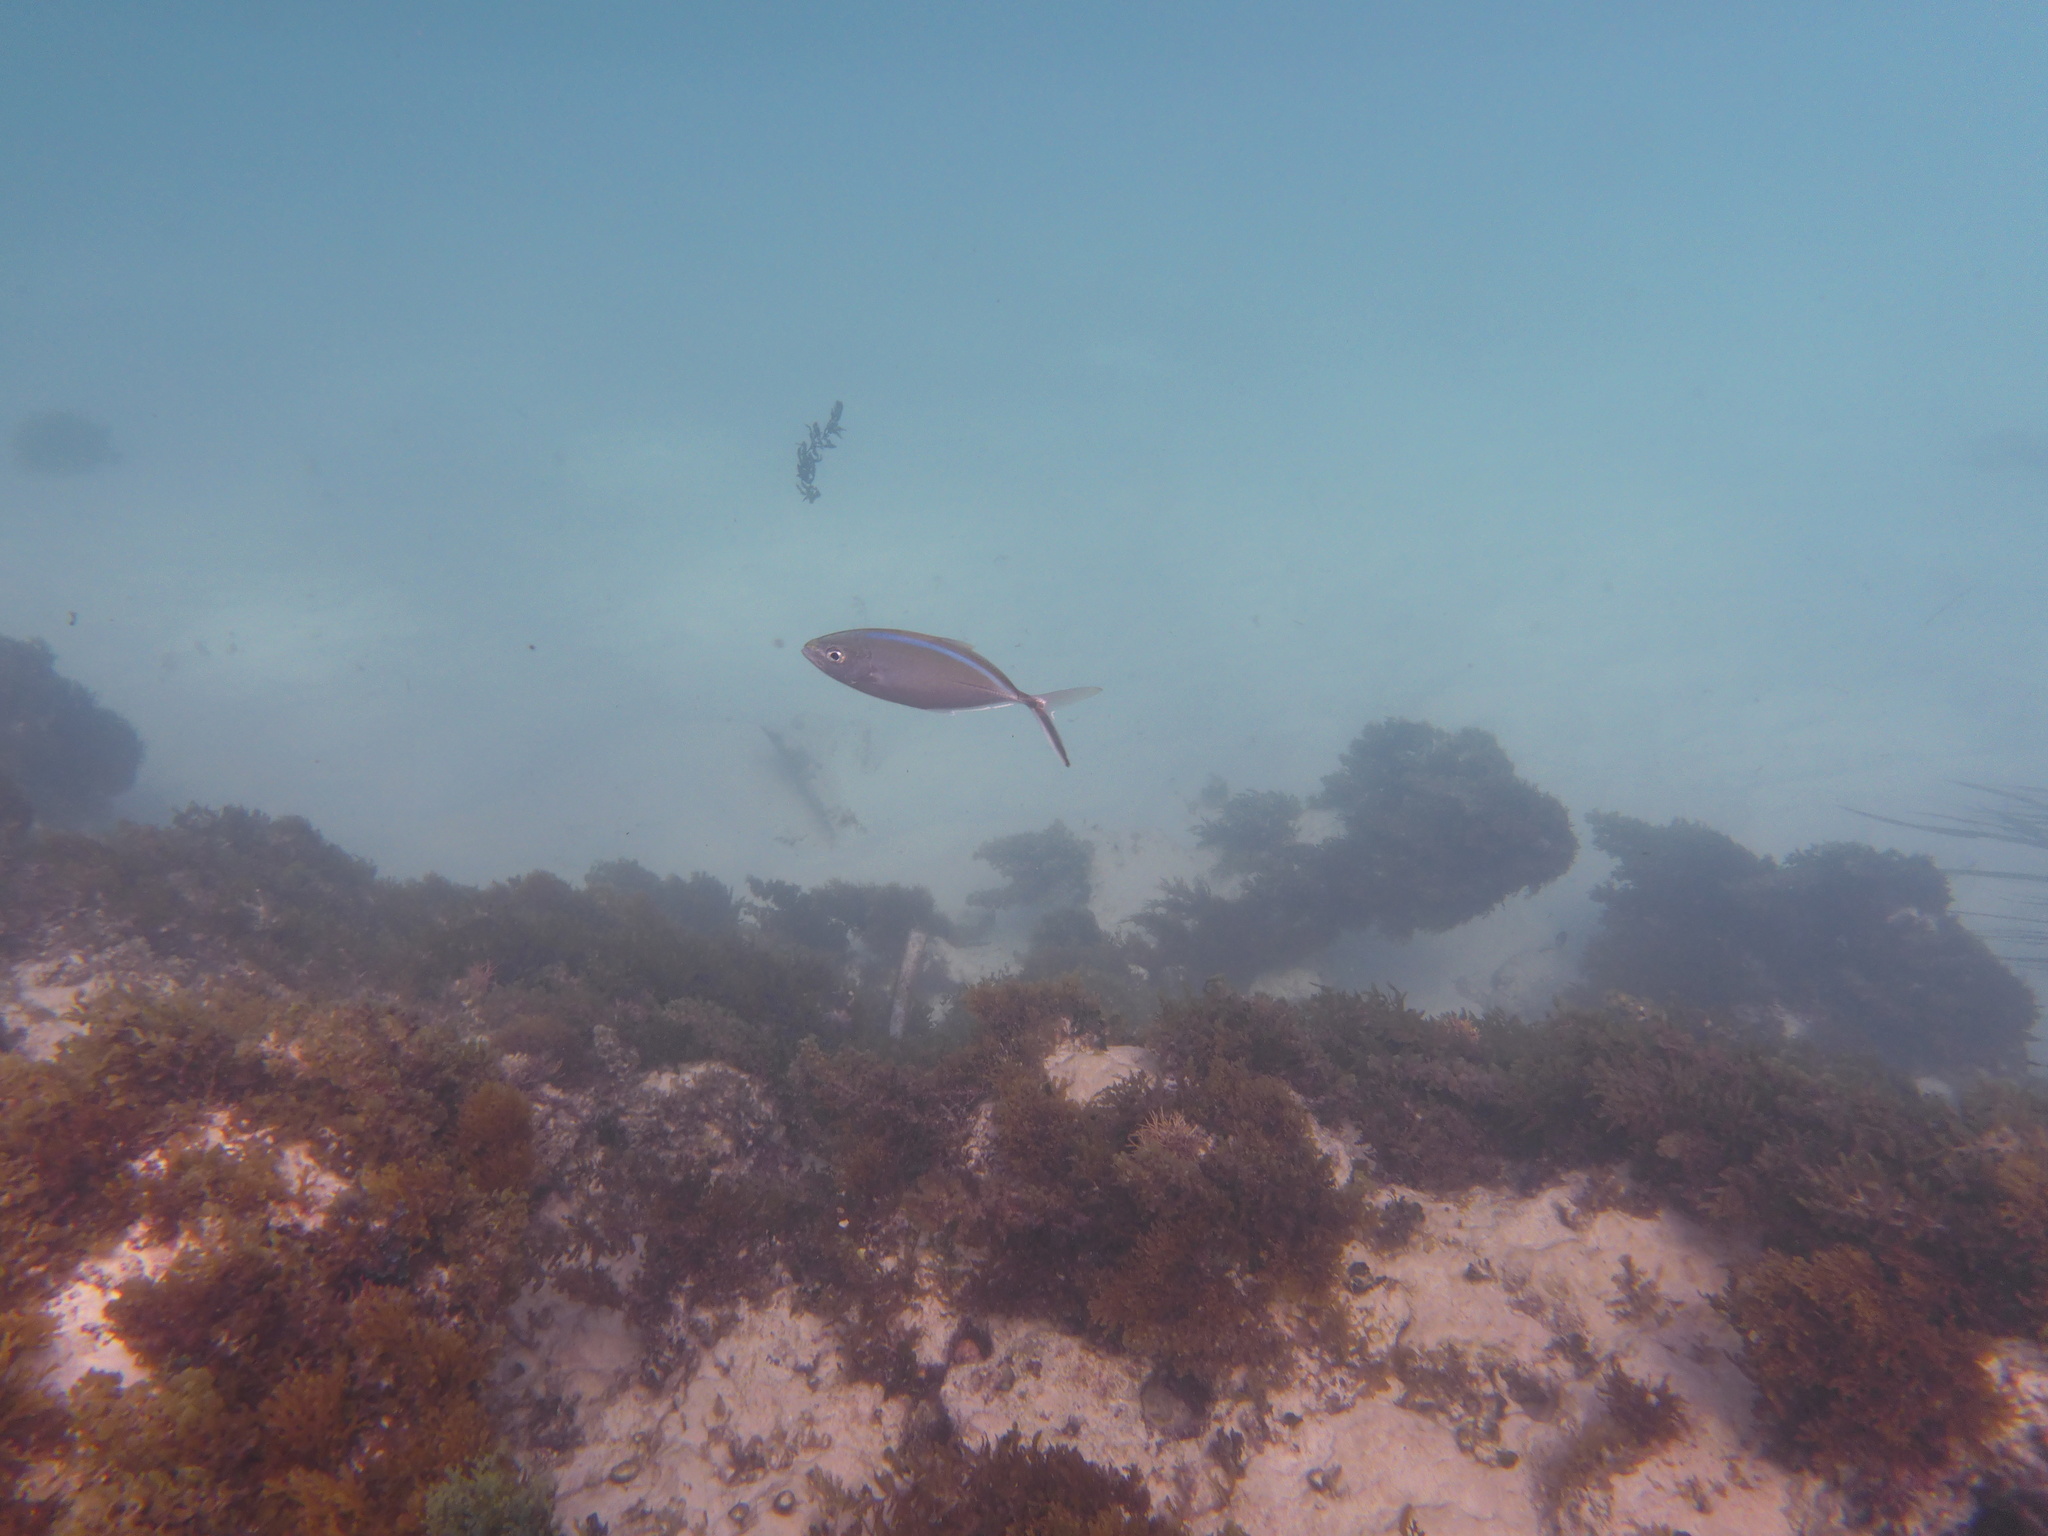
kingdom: Animalia
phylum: Chordata
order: Perciformes
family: Carangidae
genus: Caranx
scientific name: Caranx ruber
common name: Bar jack
